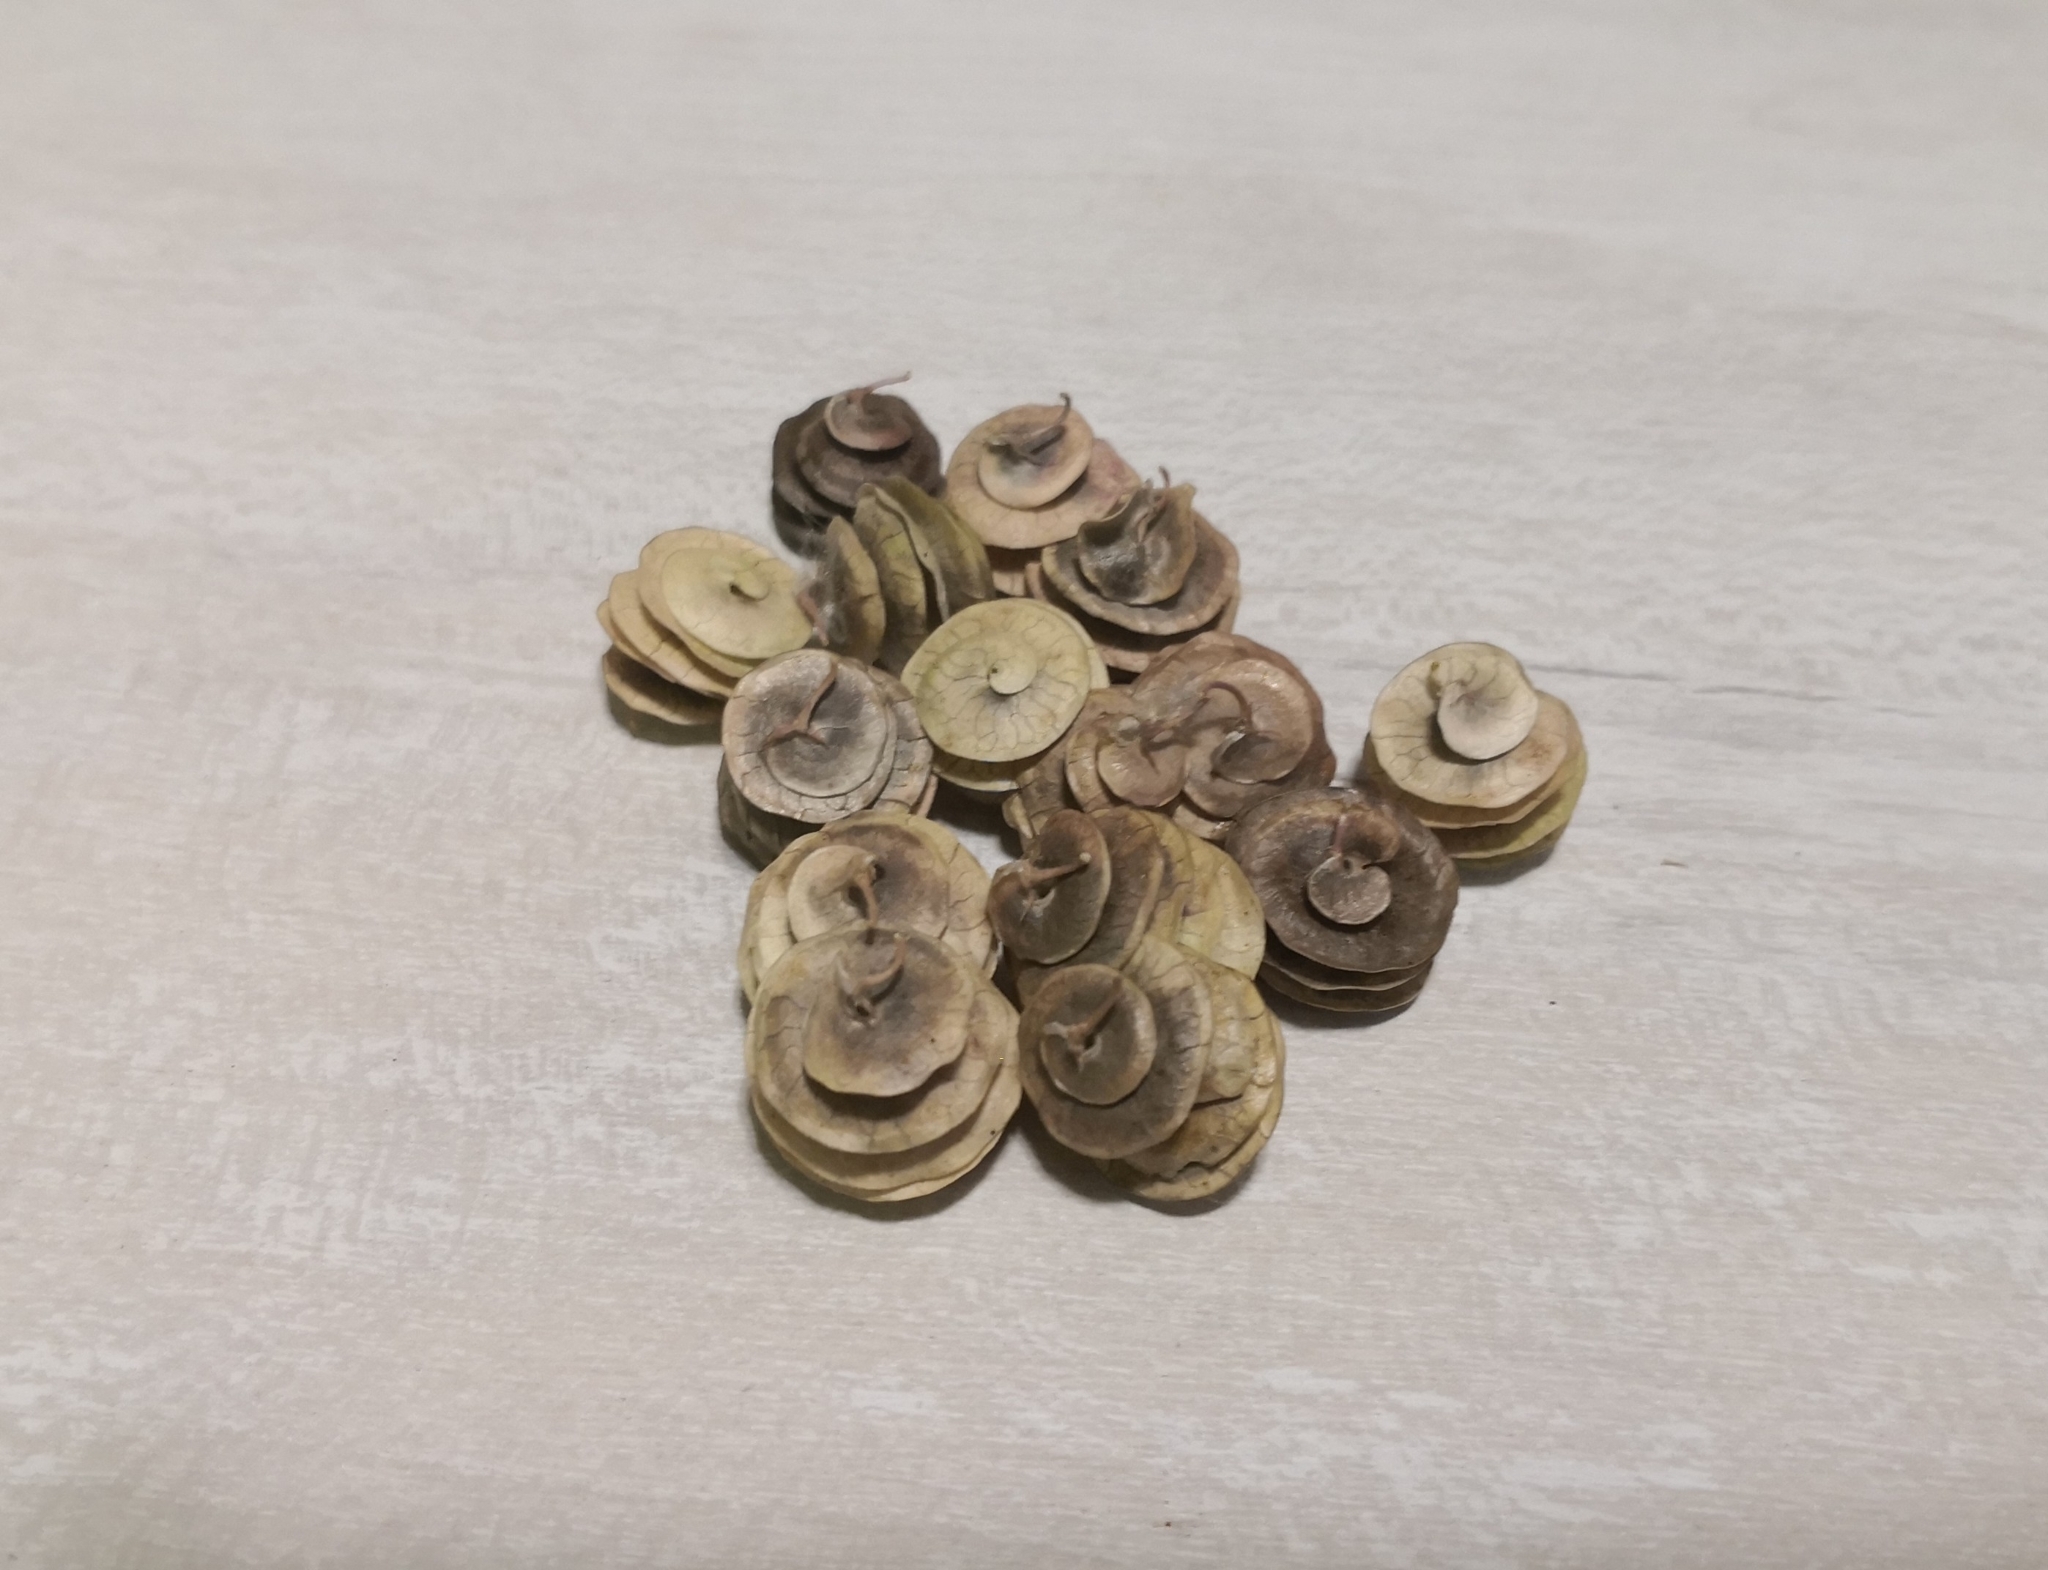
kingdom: Plantae
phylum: Tracheophyta
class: Magnoliopsida
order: Fabales
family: Fabaceae
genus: Medicago
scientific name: Medicago orbicularis
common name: Button medick
